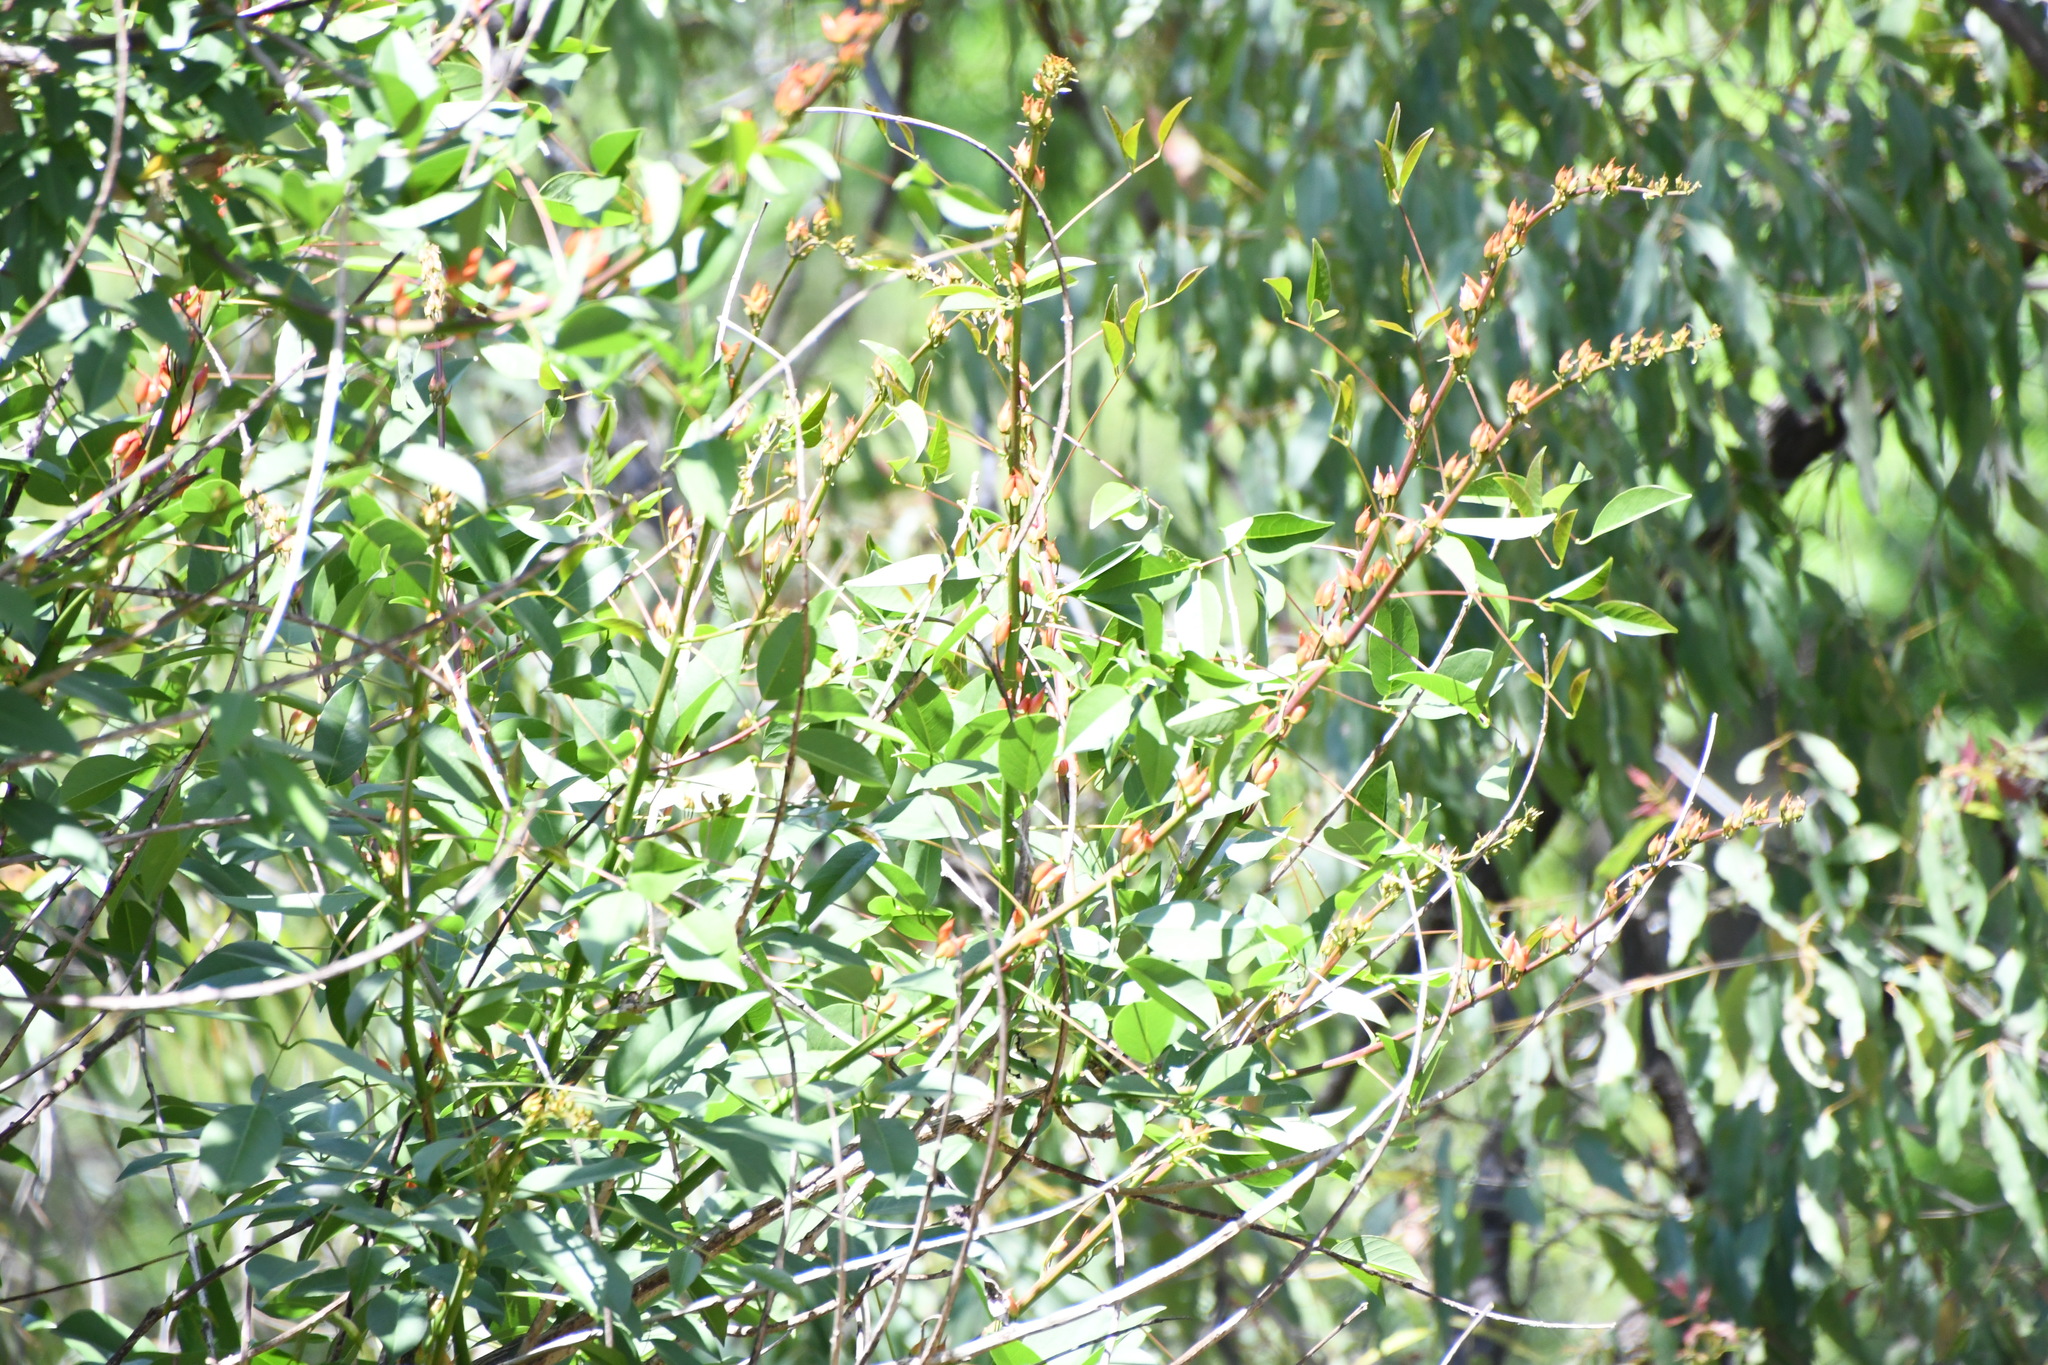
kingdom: Plantae
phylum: Tracheophyta
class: Magnoliopsida
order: Fabales
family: Fabaceae
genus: Erythrina
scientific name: Erythrina crista-galli
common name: Cockspur coral tree
